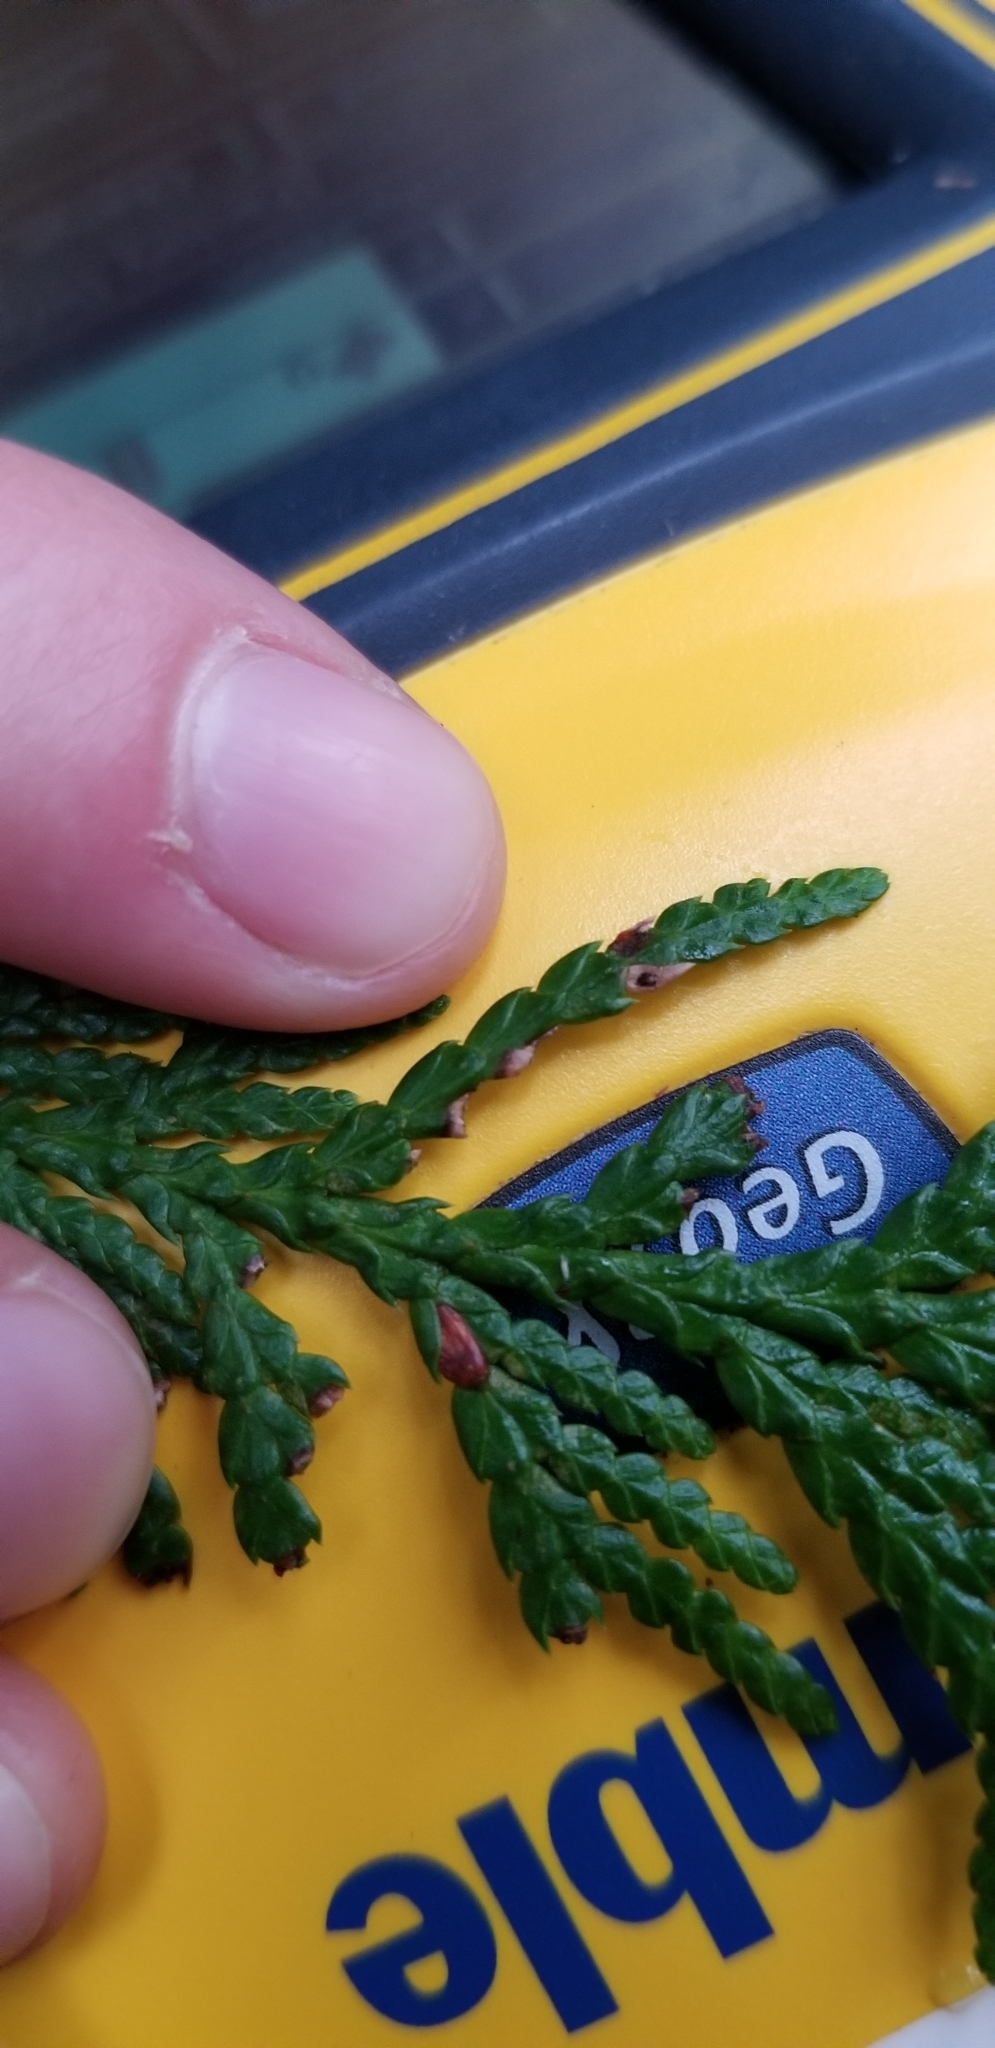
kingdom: Plantae
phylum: Tracheophyta
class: Pinopsida
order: Pinales
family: Cupressaceae
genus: Thuja
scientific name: Thuja plicata
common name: Western red-cedar
